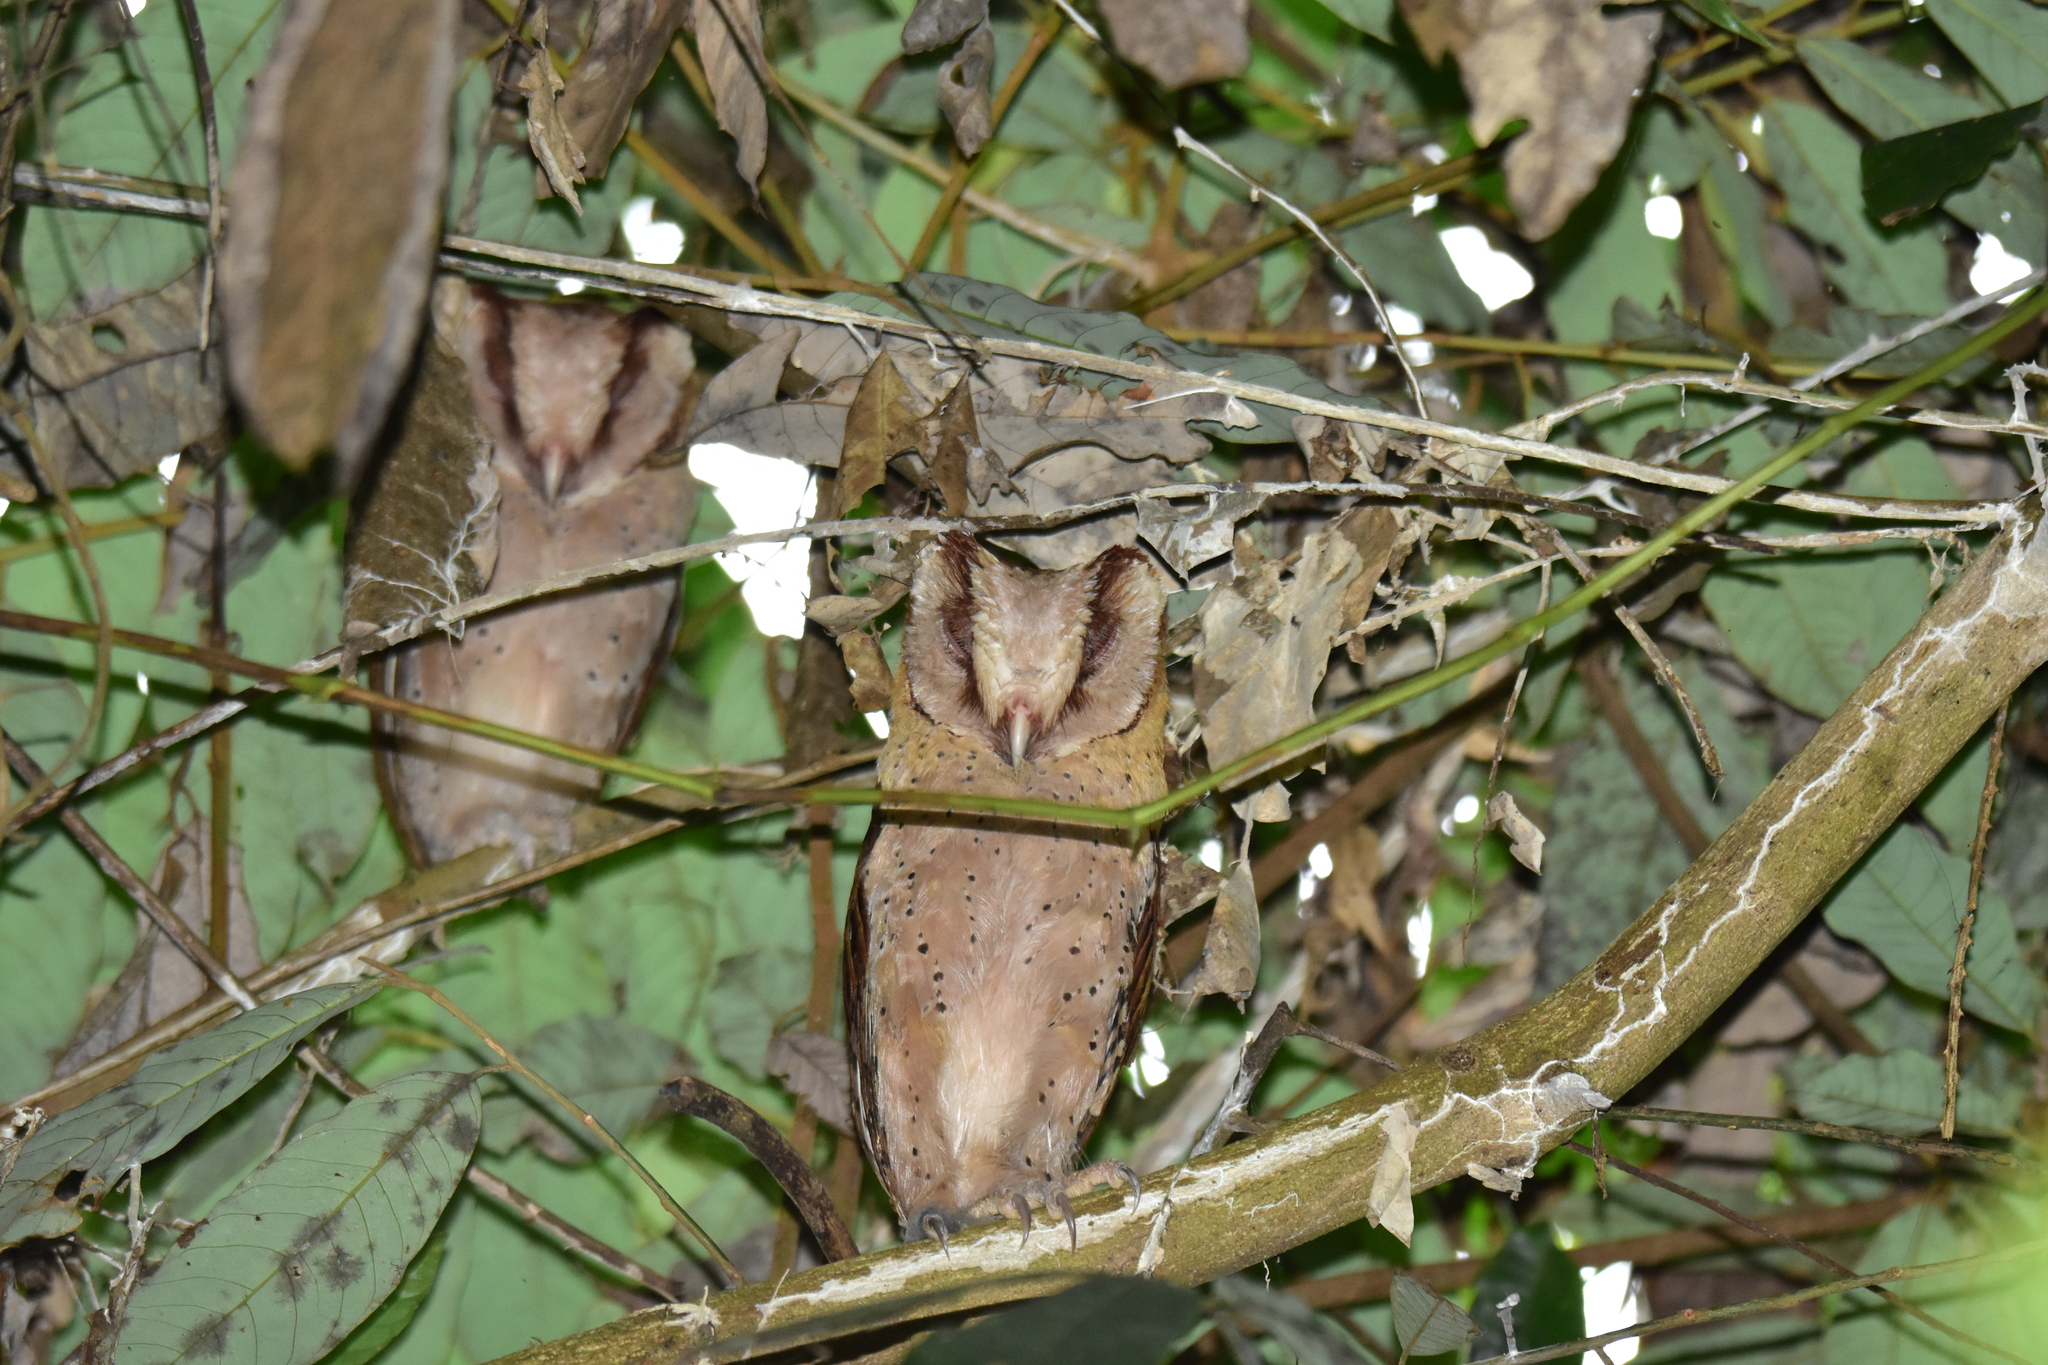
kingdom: Animalia
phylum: Chordata
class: Aves
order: Strigiformes
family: Tytonidae
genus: Phodilus
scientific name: Phodilus assimilis
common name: Sri lanka bay-owl
